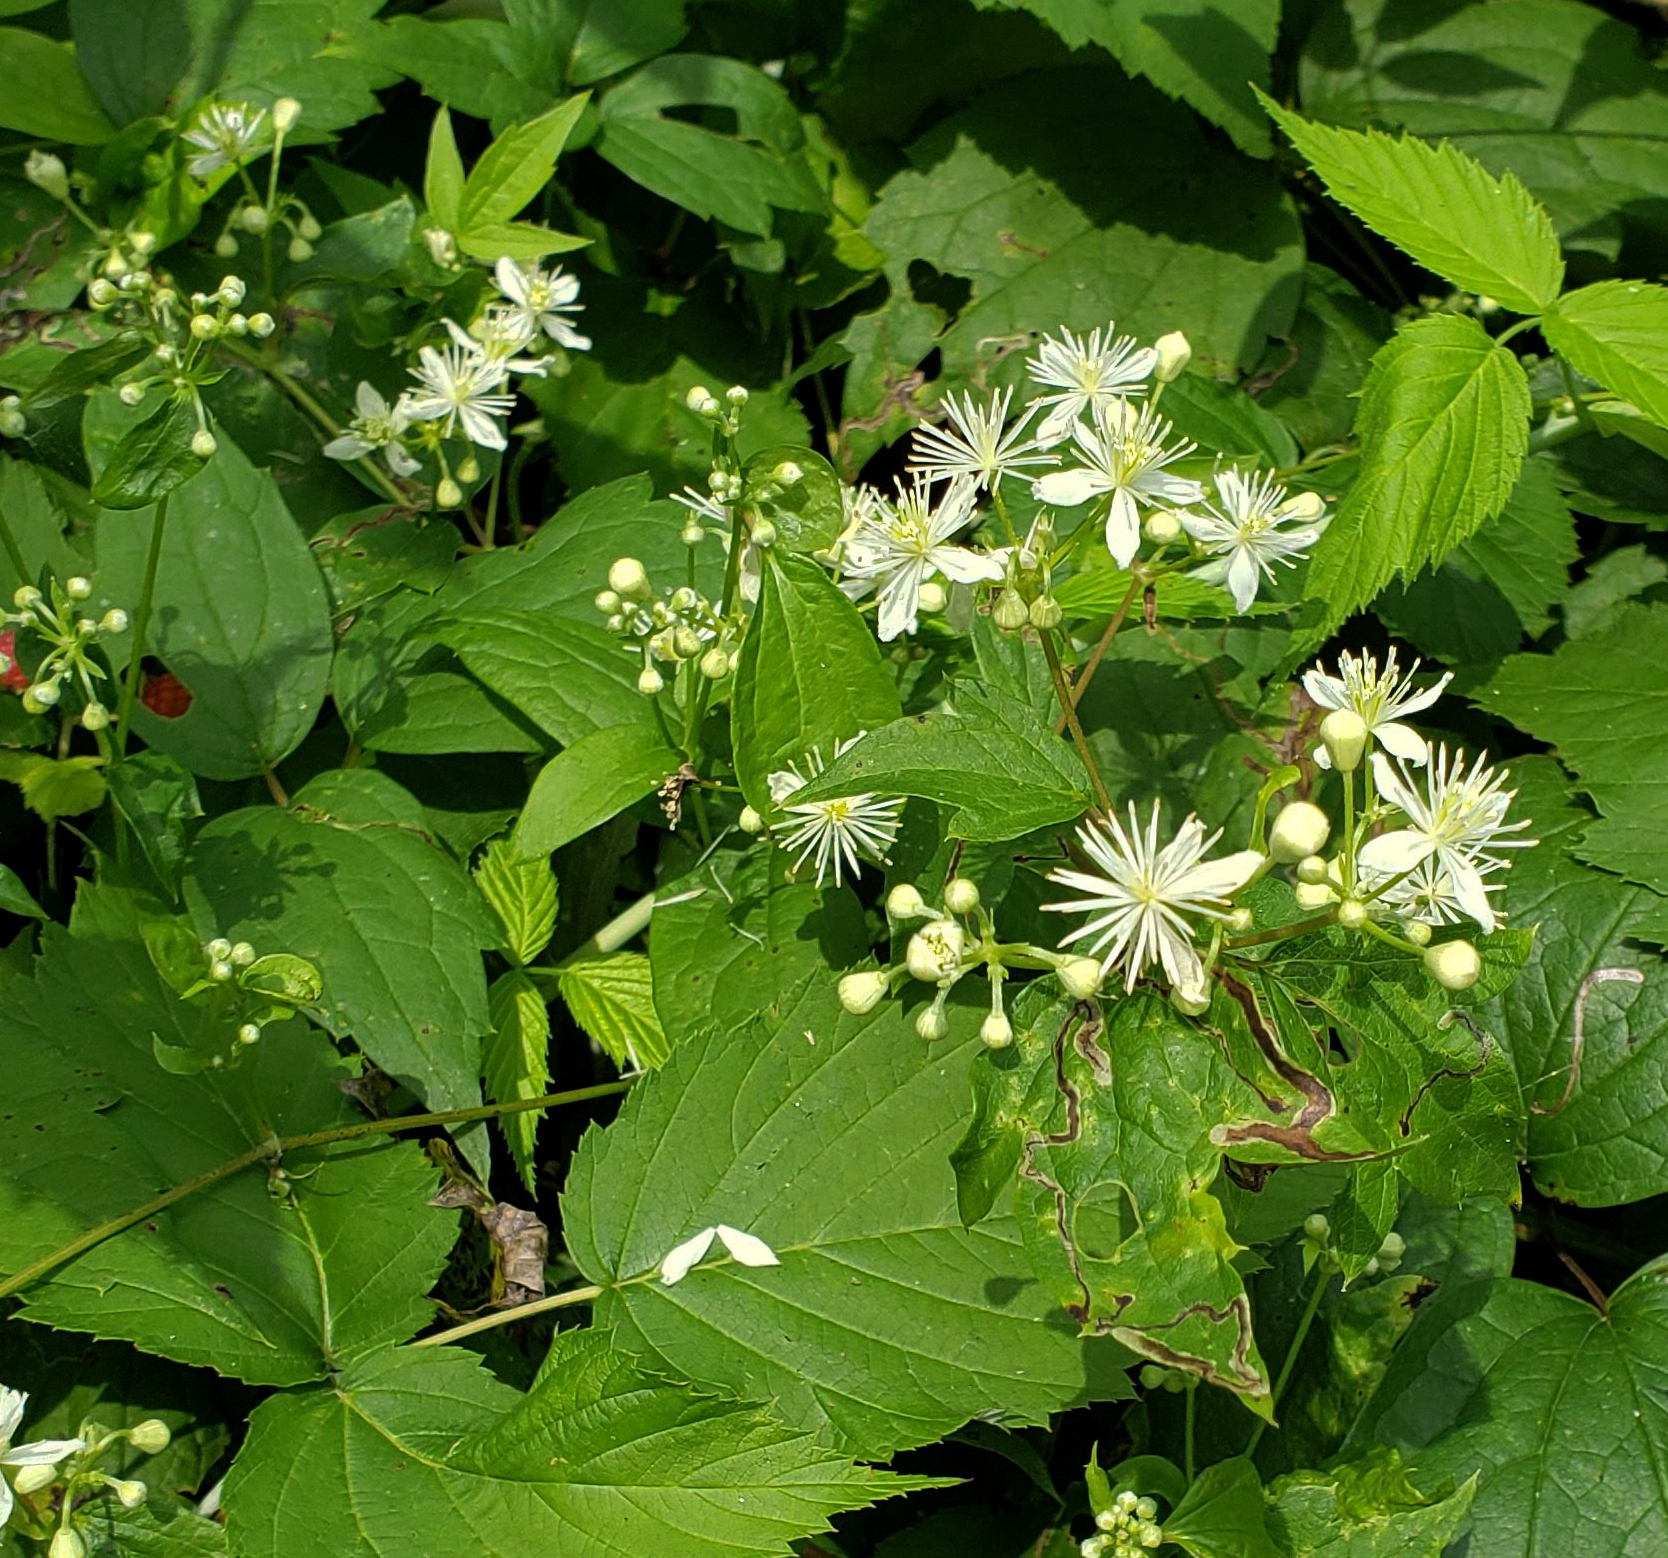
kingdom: Plantae
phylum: Tracheophyta
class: Magnoliopsida
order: Ranunculales
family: Ranunculaceae
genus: Clematis
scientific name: Clematis virginiana
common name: Virgin's-bower
